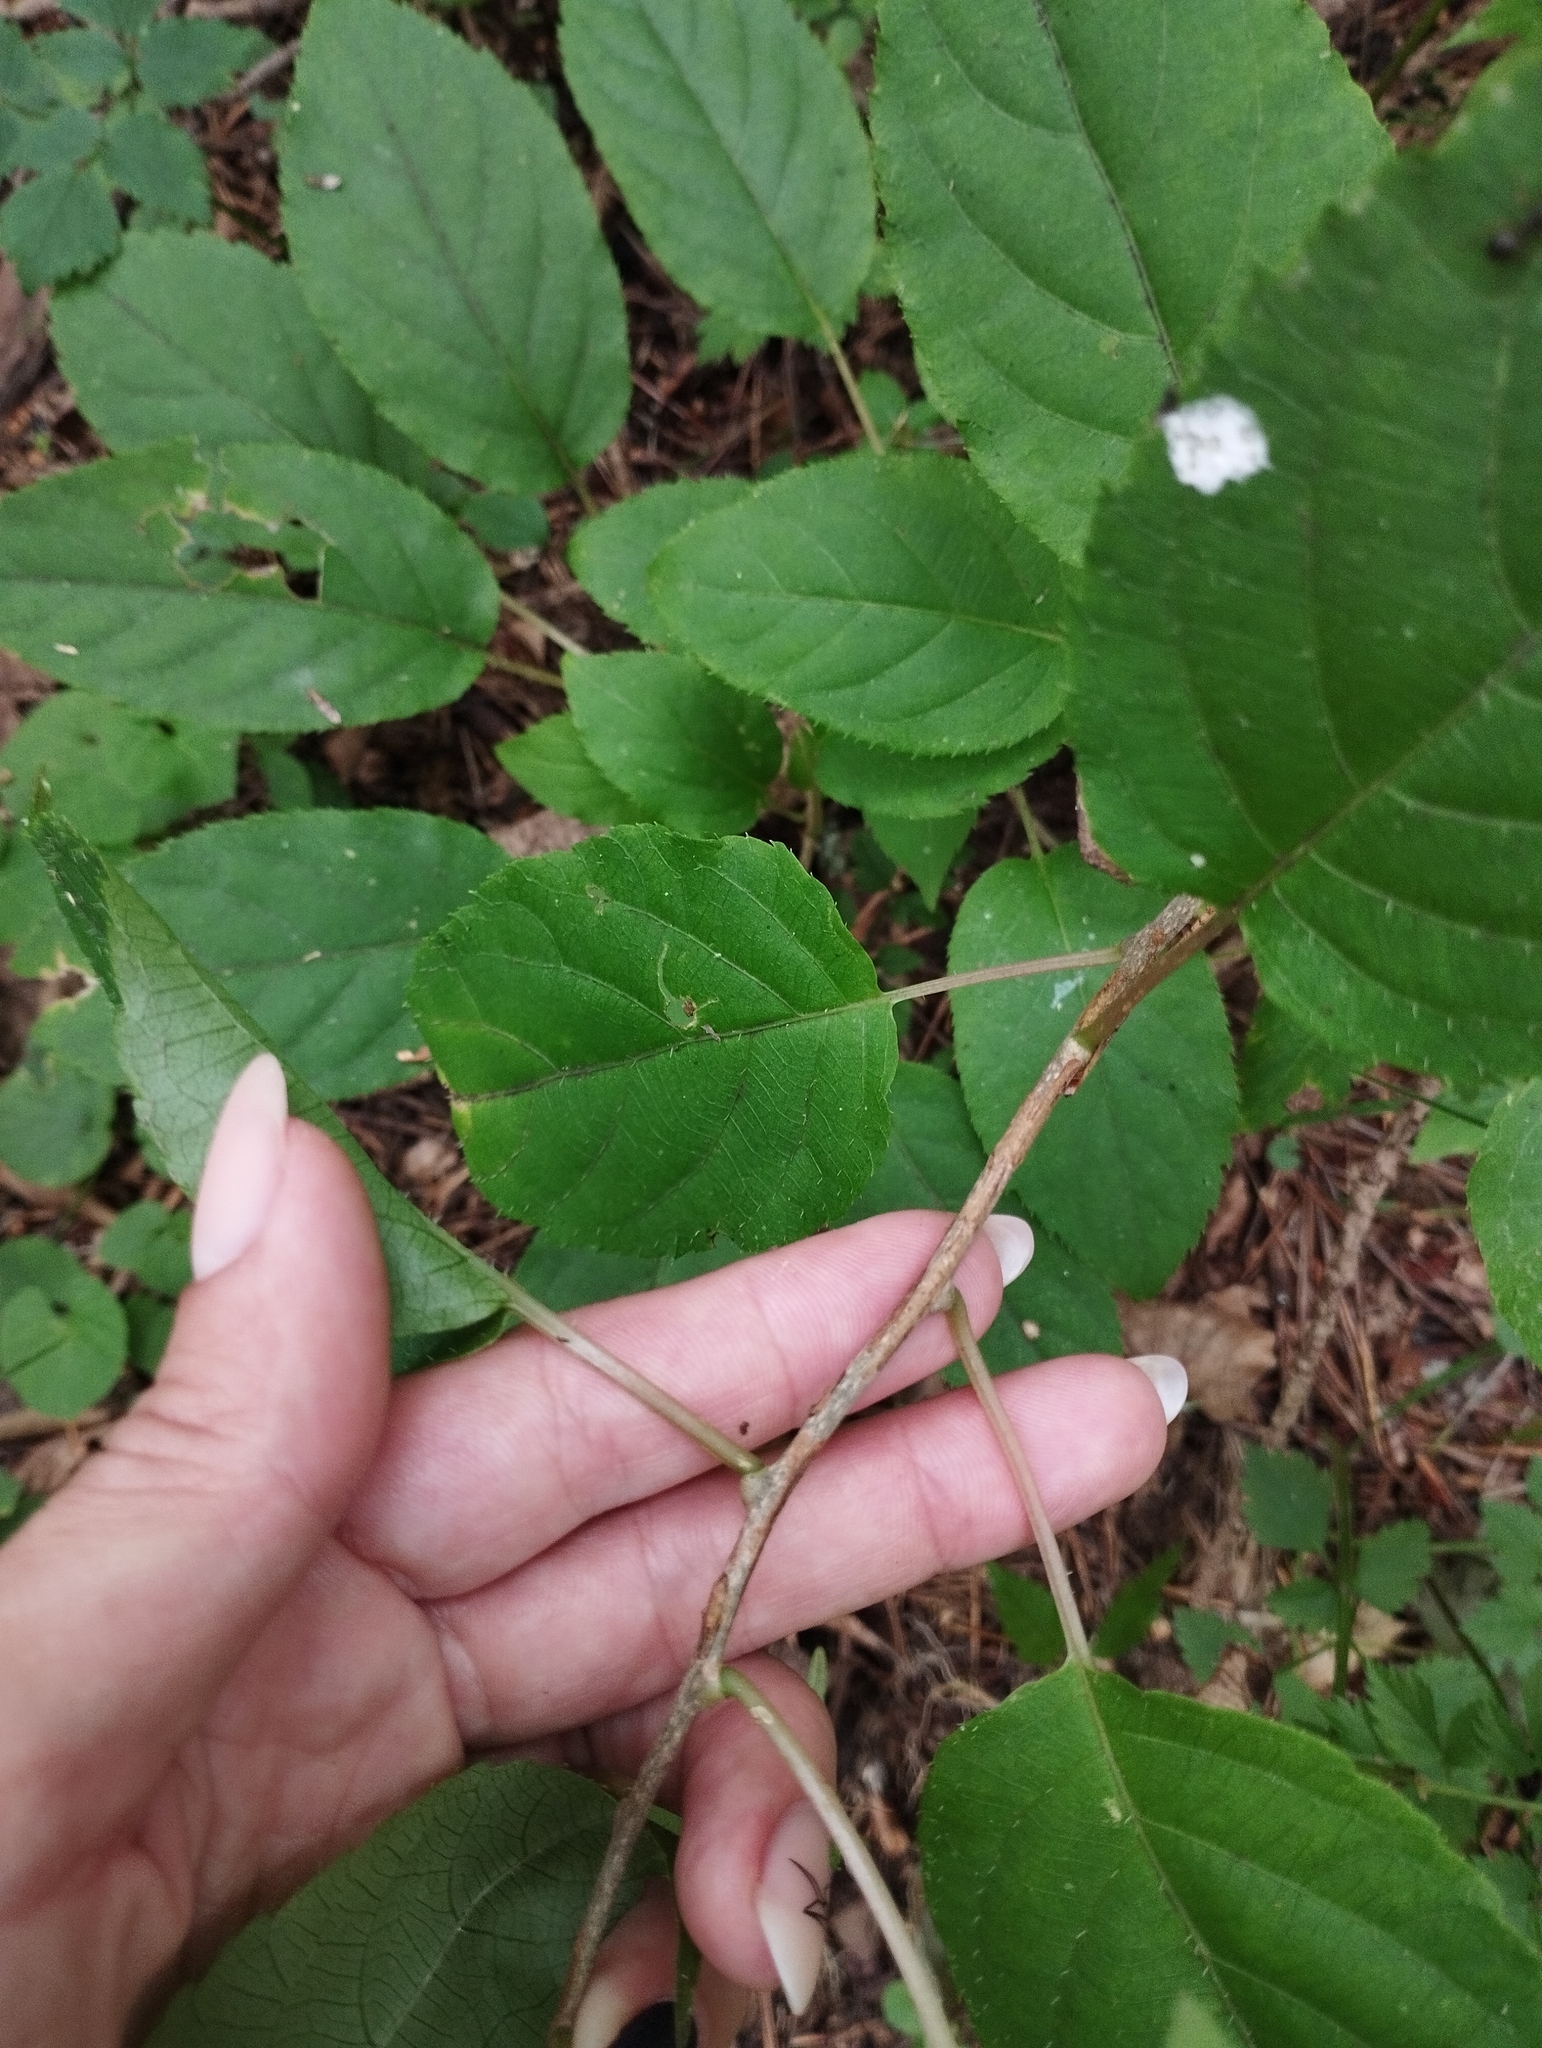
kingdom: Plantae
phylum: Tracheophyta
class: Magnoliopsida
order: Ericales
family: Actinidiaceae
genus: Actinidia
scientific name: Actinidia arguta
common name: Tara vine
